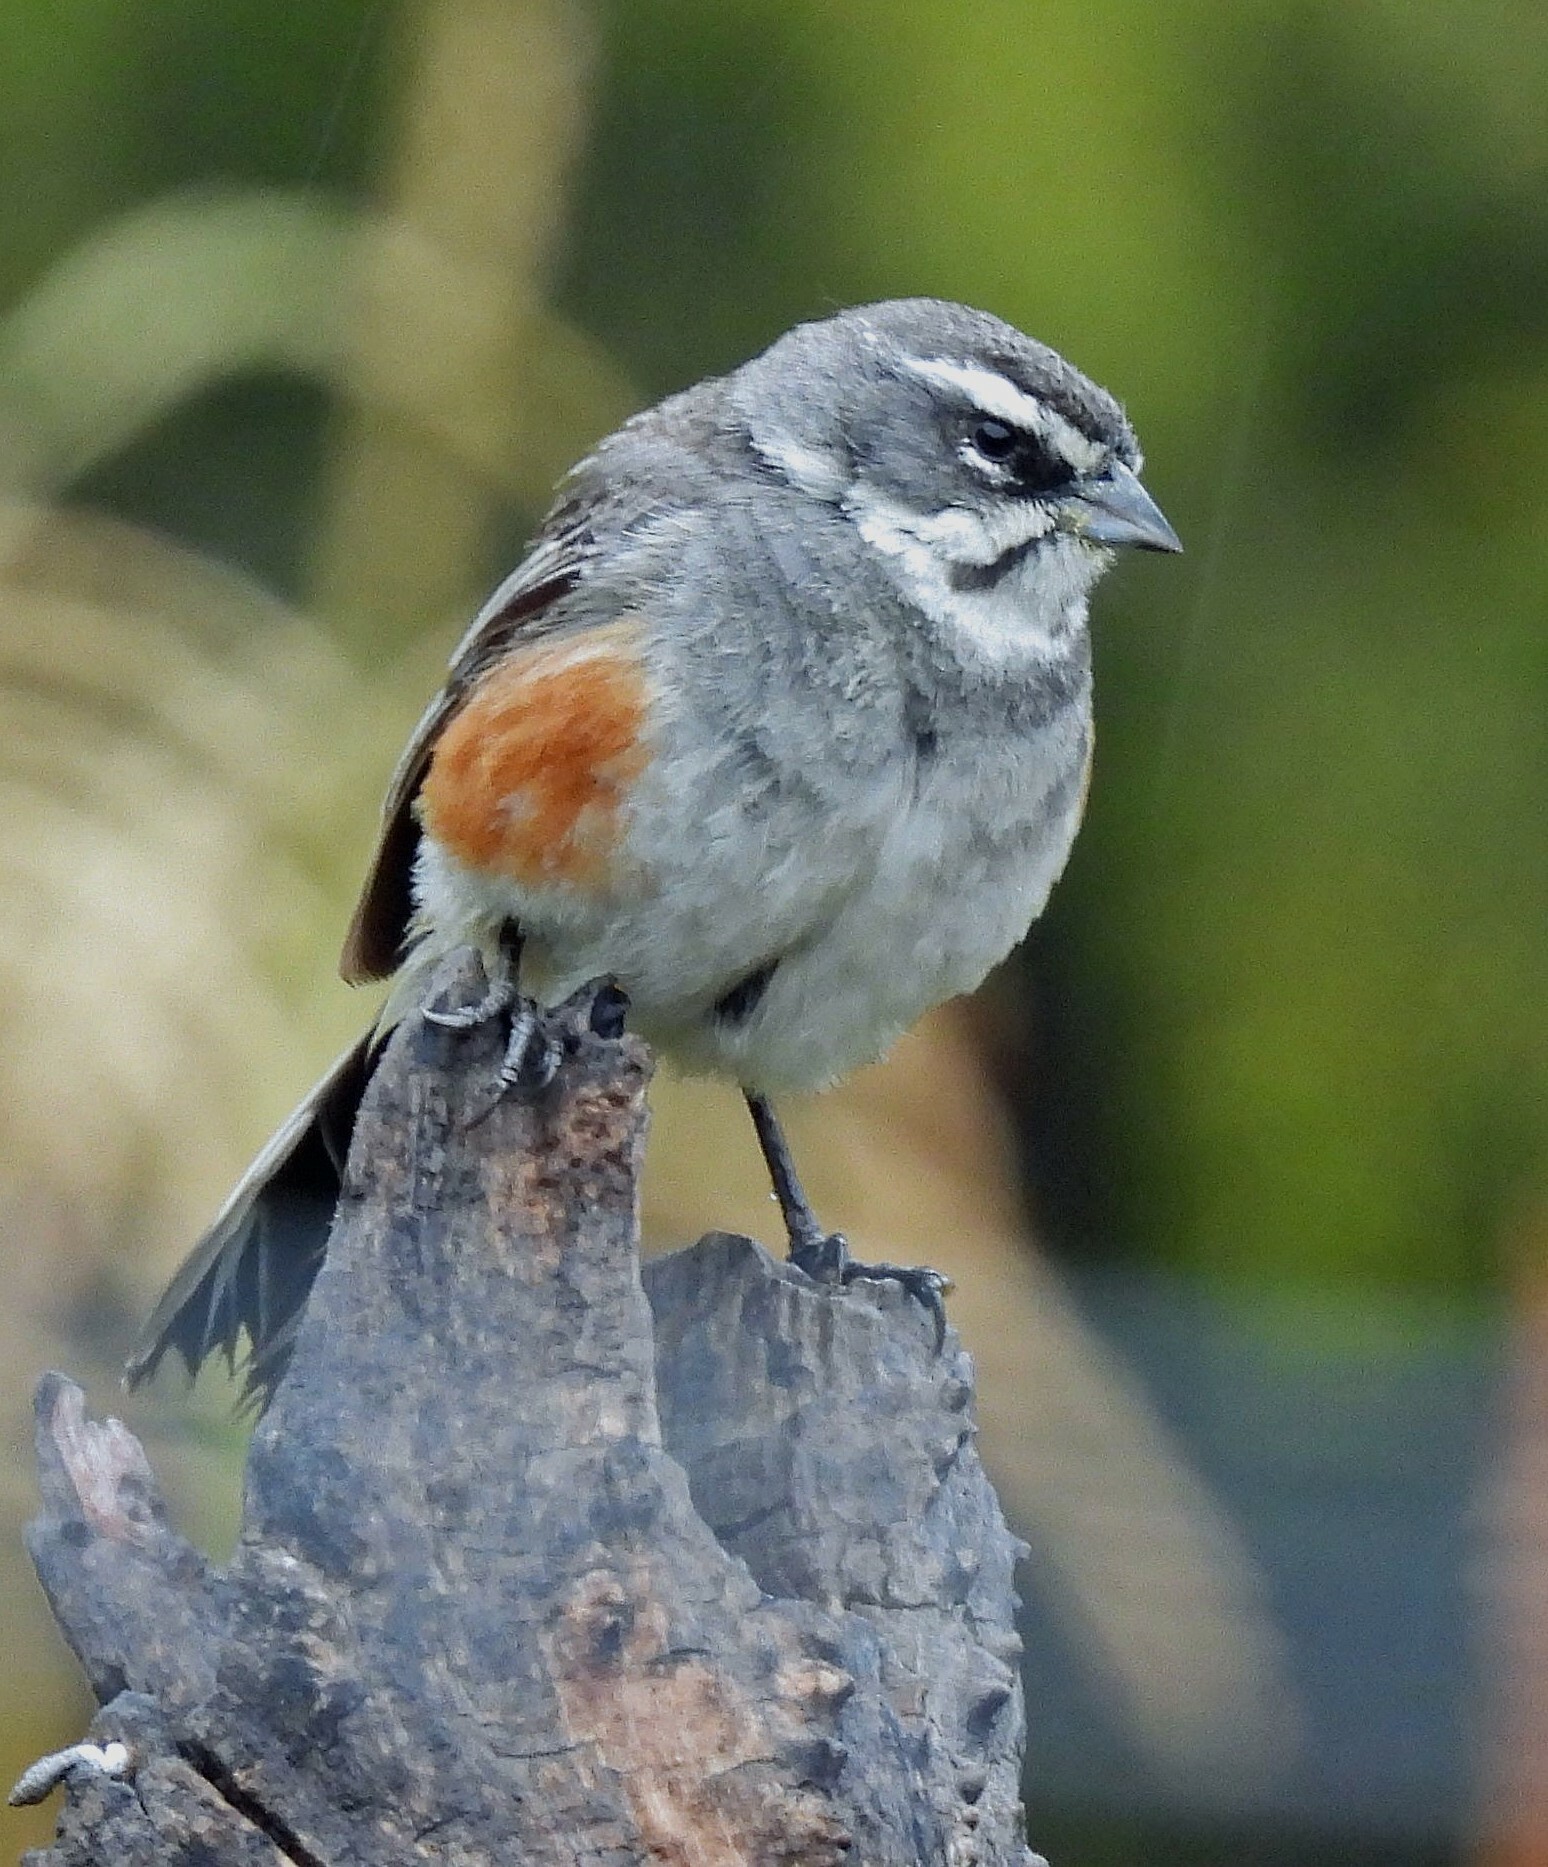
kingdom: Animalia
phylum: Chordata
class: Aves
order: Passeriformes
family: Thraupidae
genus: Poospizopsis
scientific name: Poospizopsis hypocondria
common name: Rufous-sided warbling-finch
